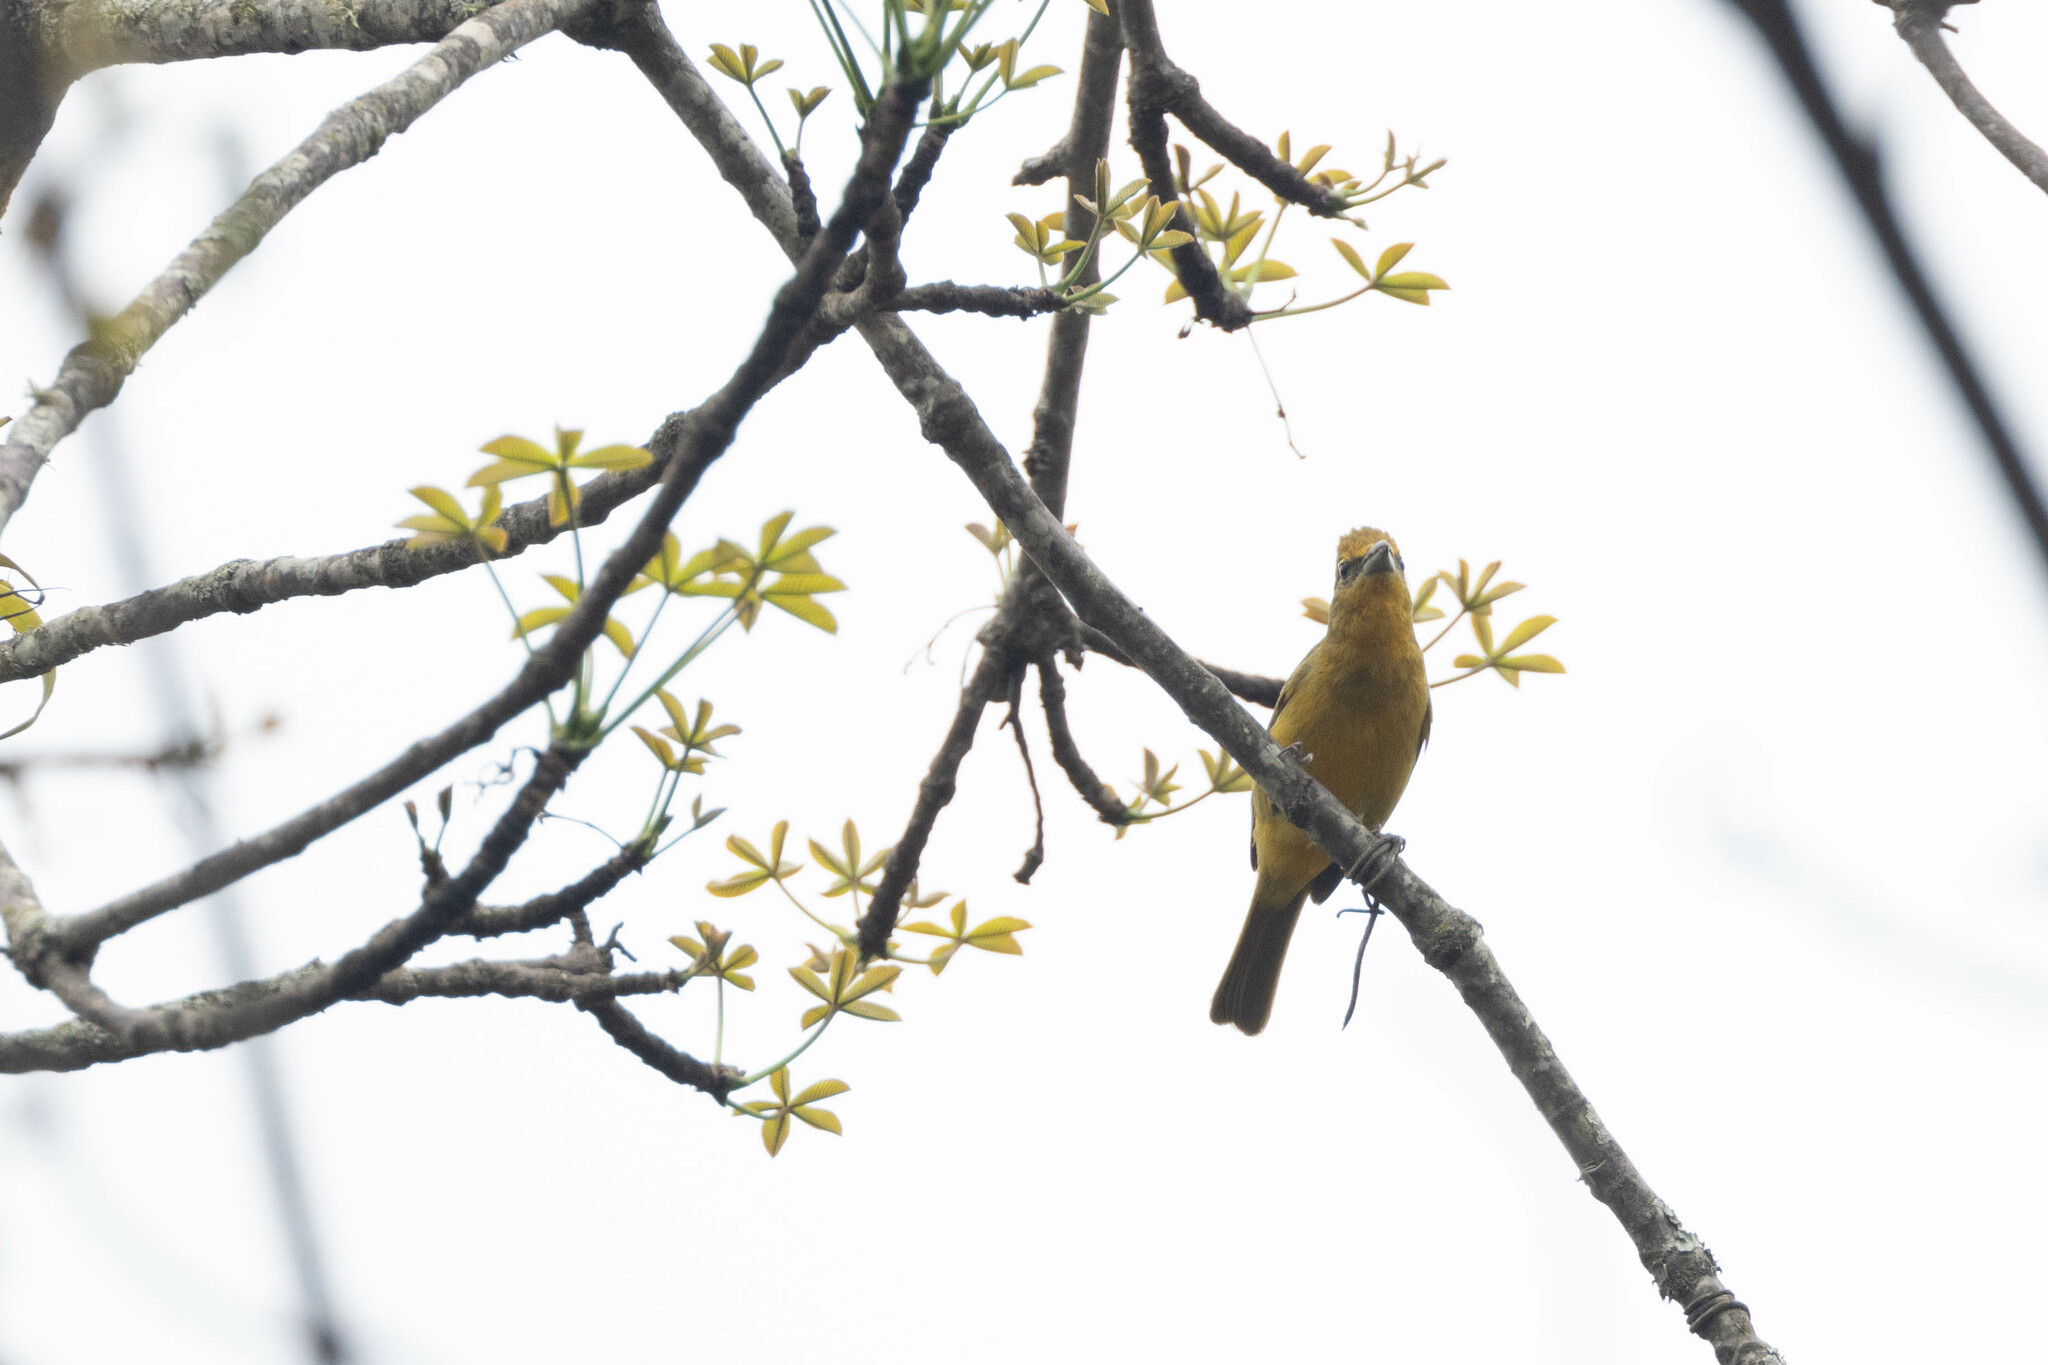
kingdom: Animalia
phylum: Chordata
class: Aves
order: Passeriformes
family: Cardinalidae
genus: Piranga
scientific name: Piranga flava
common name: Red tanager
